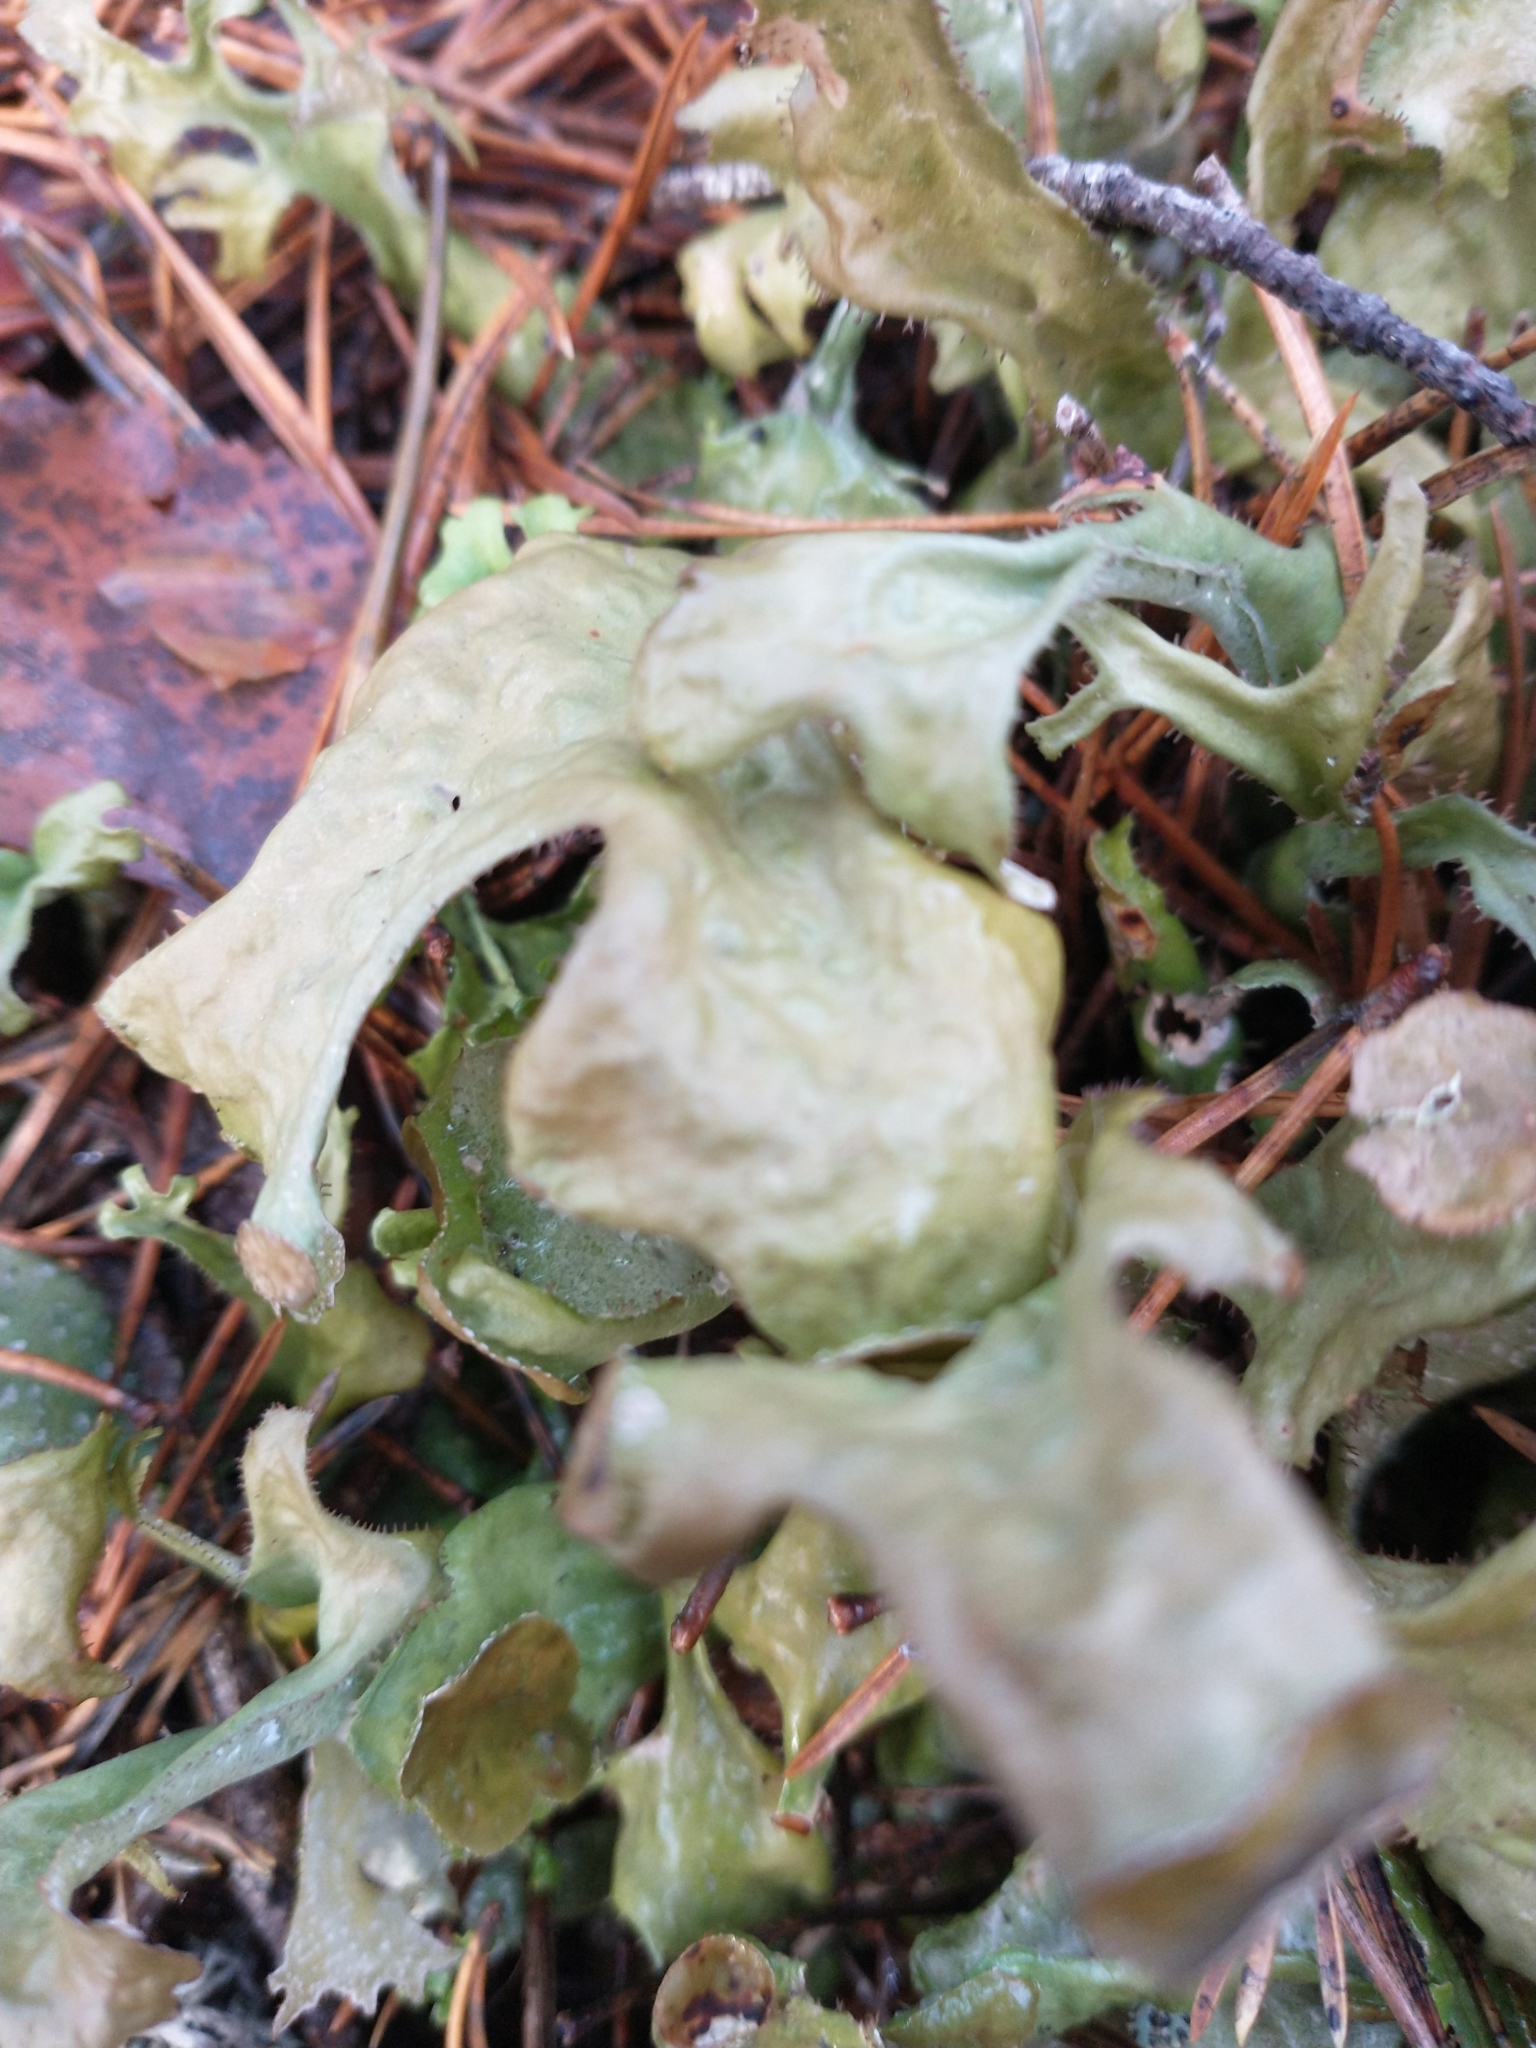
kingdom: Fungi
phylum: Ascomycota
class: Lecanoromycetes
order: Lecanorales
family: Parmeliaceae
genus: Cetraria
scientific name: Cetraria islandica
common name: Iceland lichen
